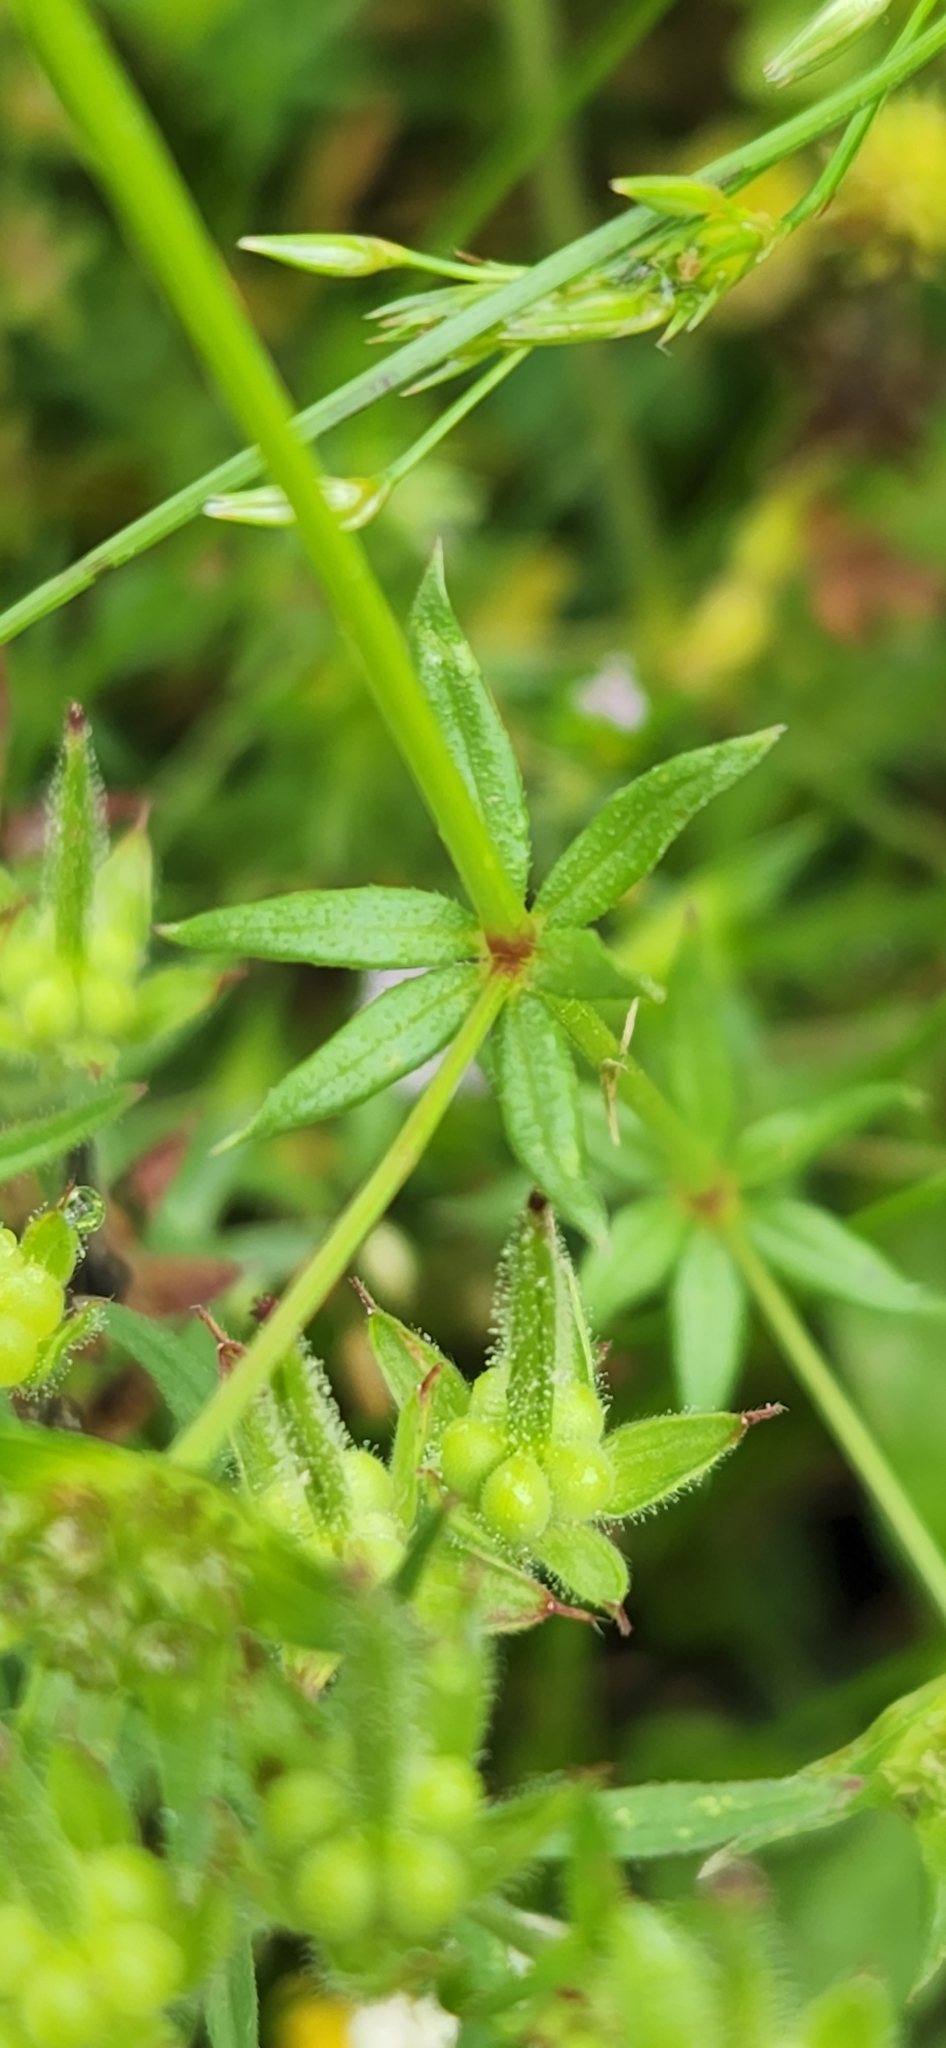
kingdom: Plantae
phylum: Tracheophyta
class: Magnoliopsida
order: Gentianales
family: Rubiaceae
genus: Sherardia
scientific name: Sherardia arvensis
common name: Field madder
